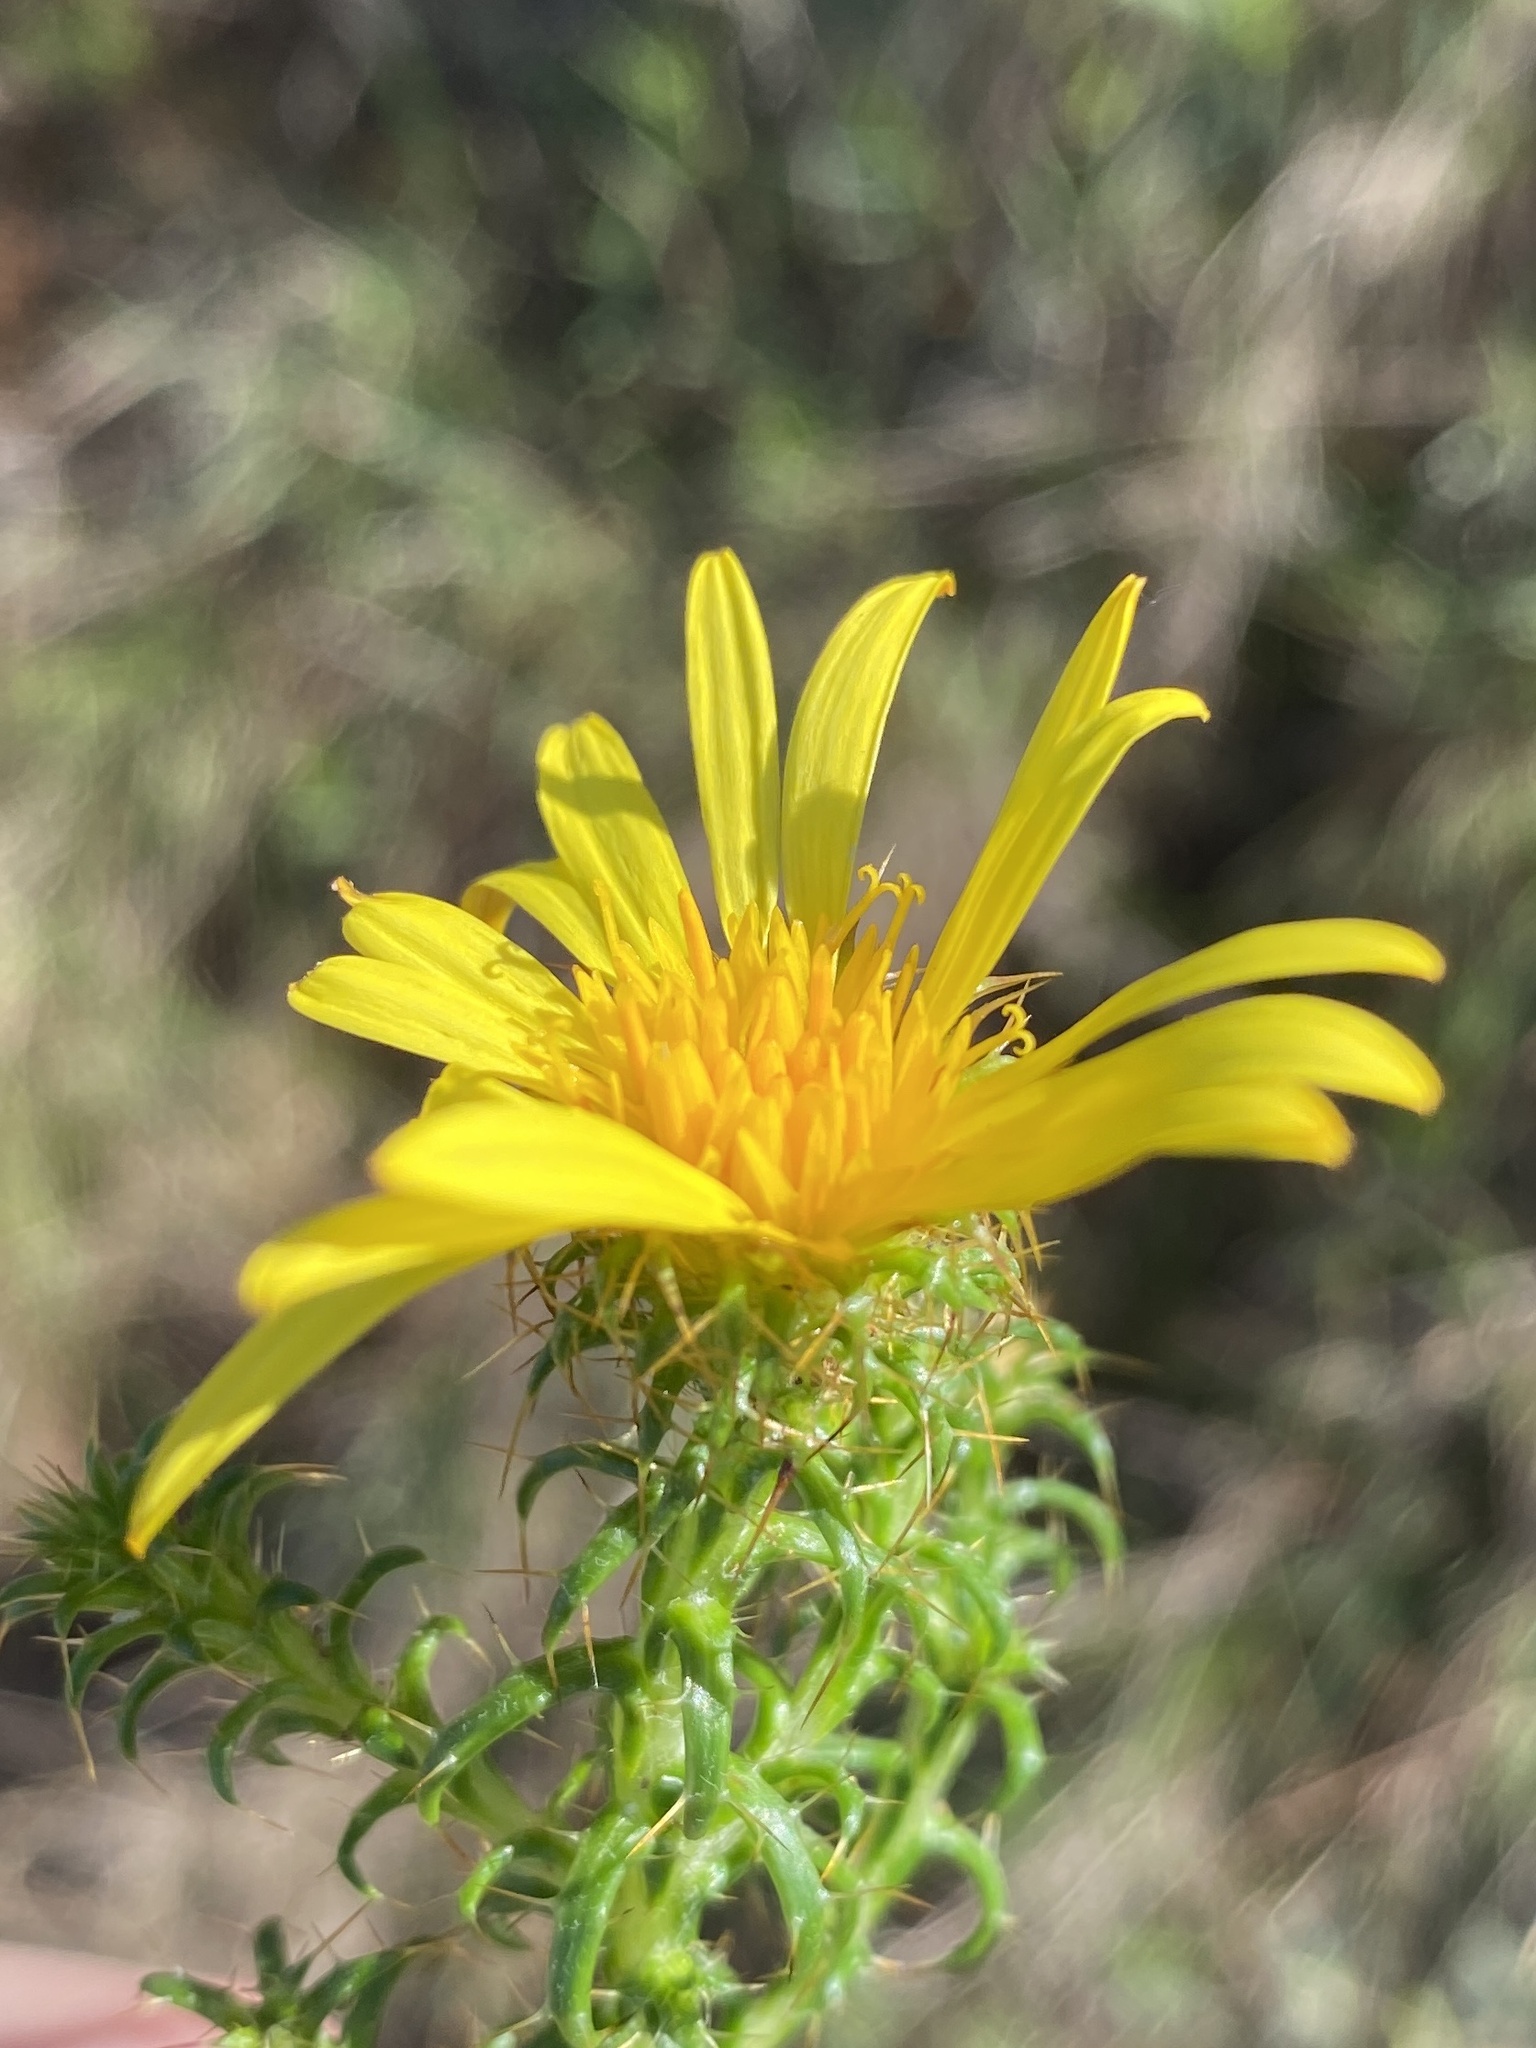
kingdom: Plantae
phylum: Tracheophyta
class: Magnoliopsida
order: Asterales
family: Asteraceae
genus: Cullumia
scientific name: Cullumia decurrens
